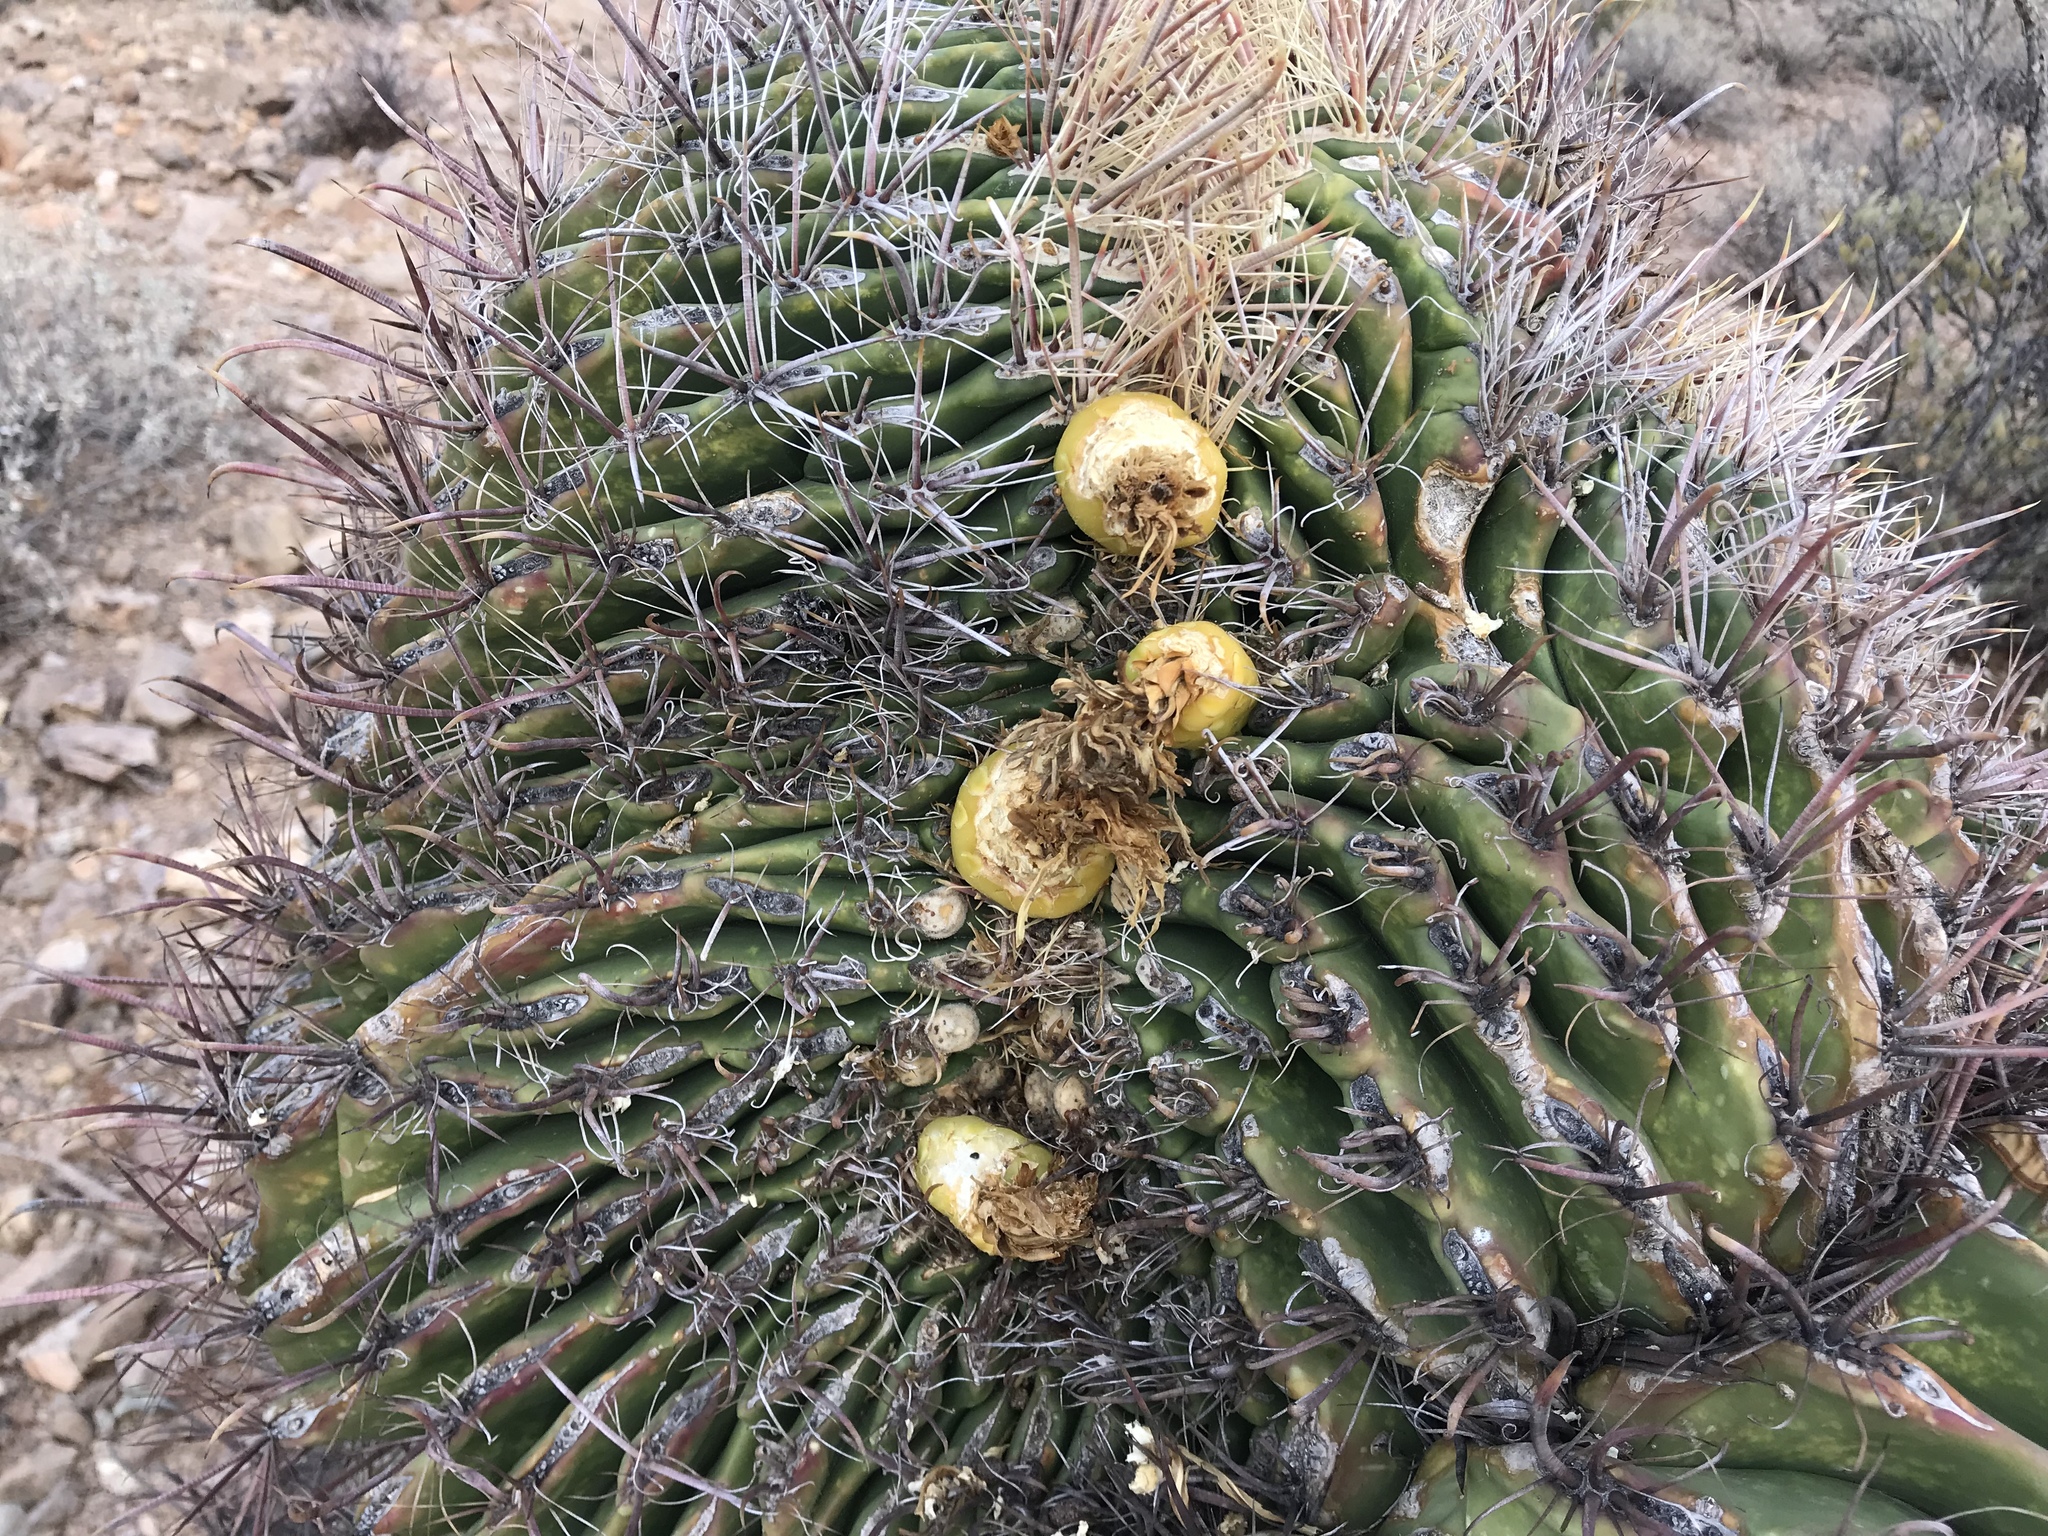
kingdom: Plantae
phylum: Tracheophyta
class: Magnoliopsida
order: Caryophyllales
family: Cactaceae
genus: Ferocactus
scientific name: Ferocactus wislizeni
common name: Candy barrel cactus
